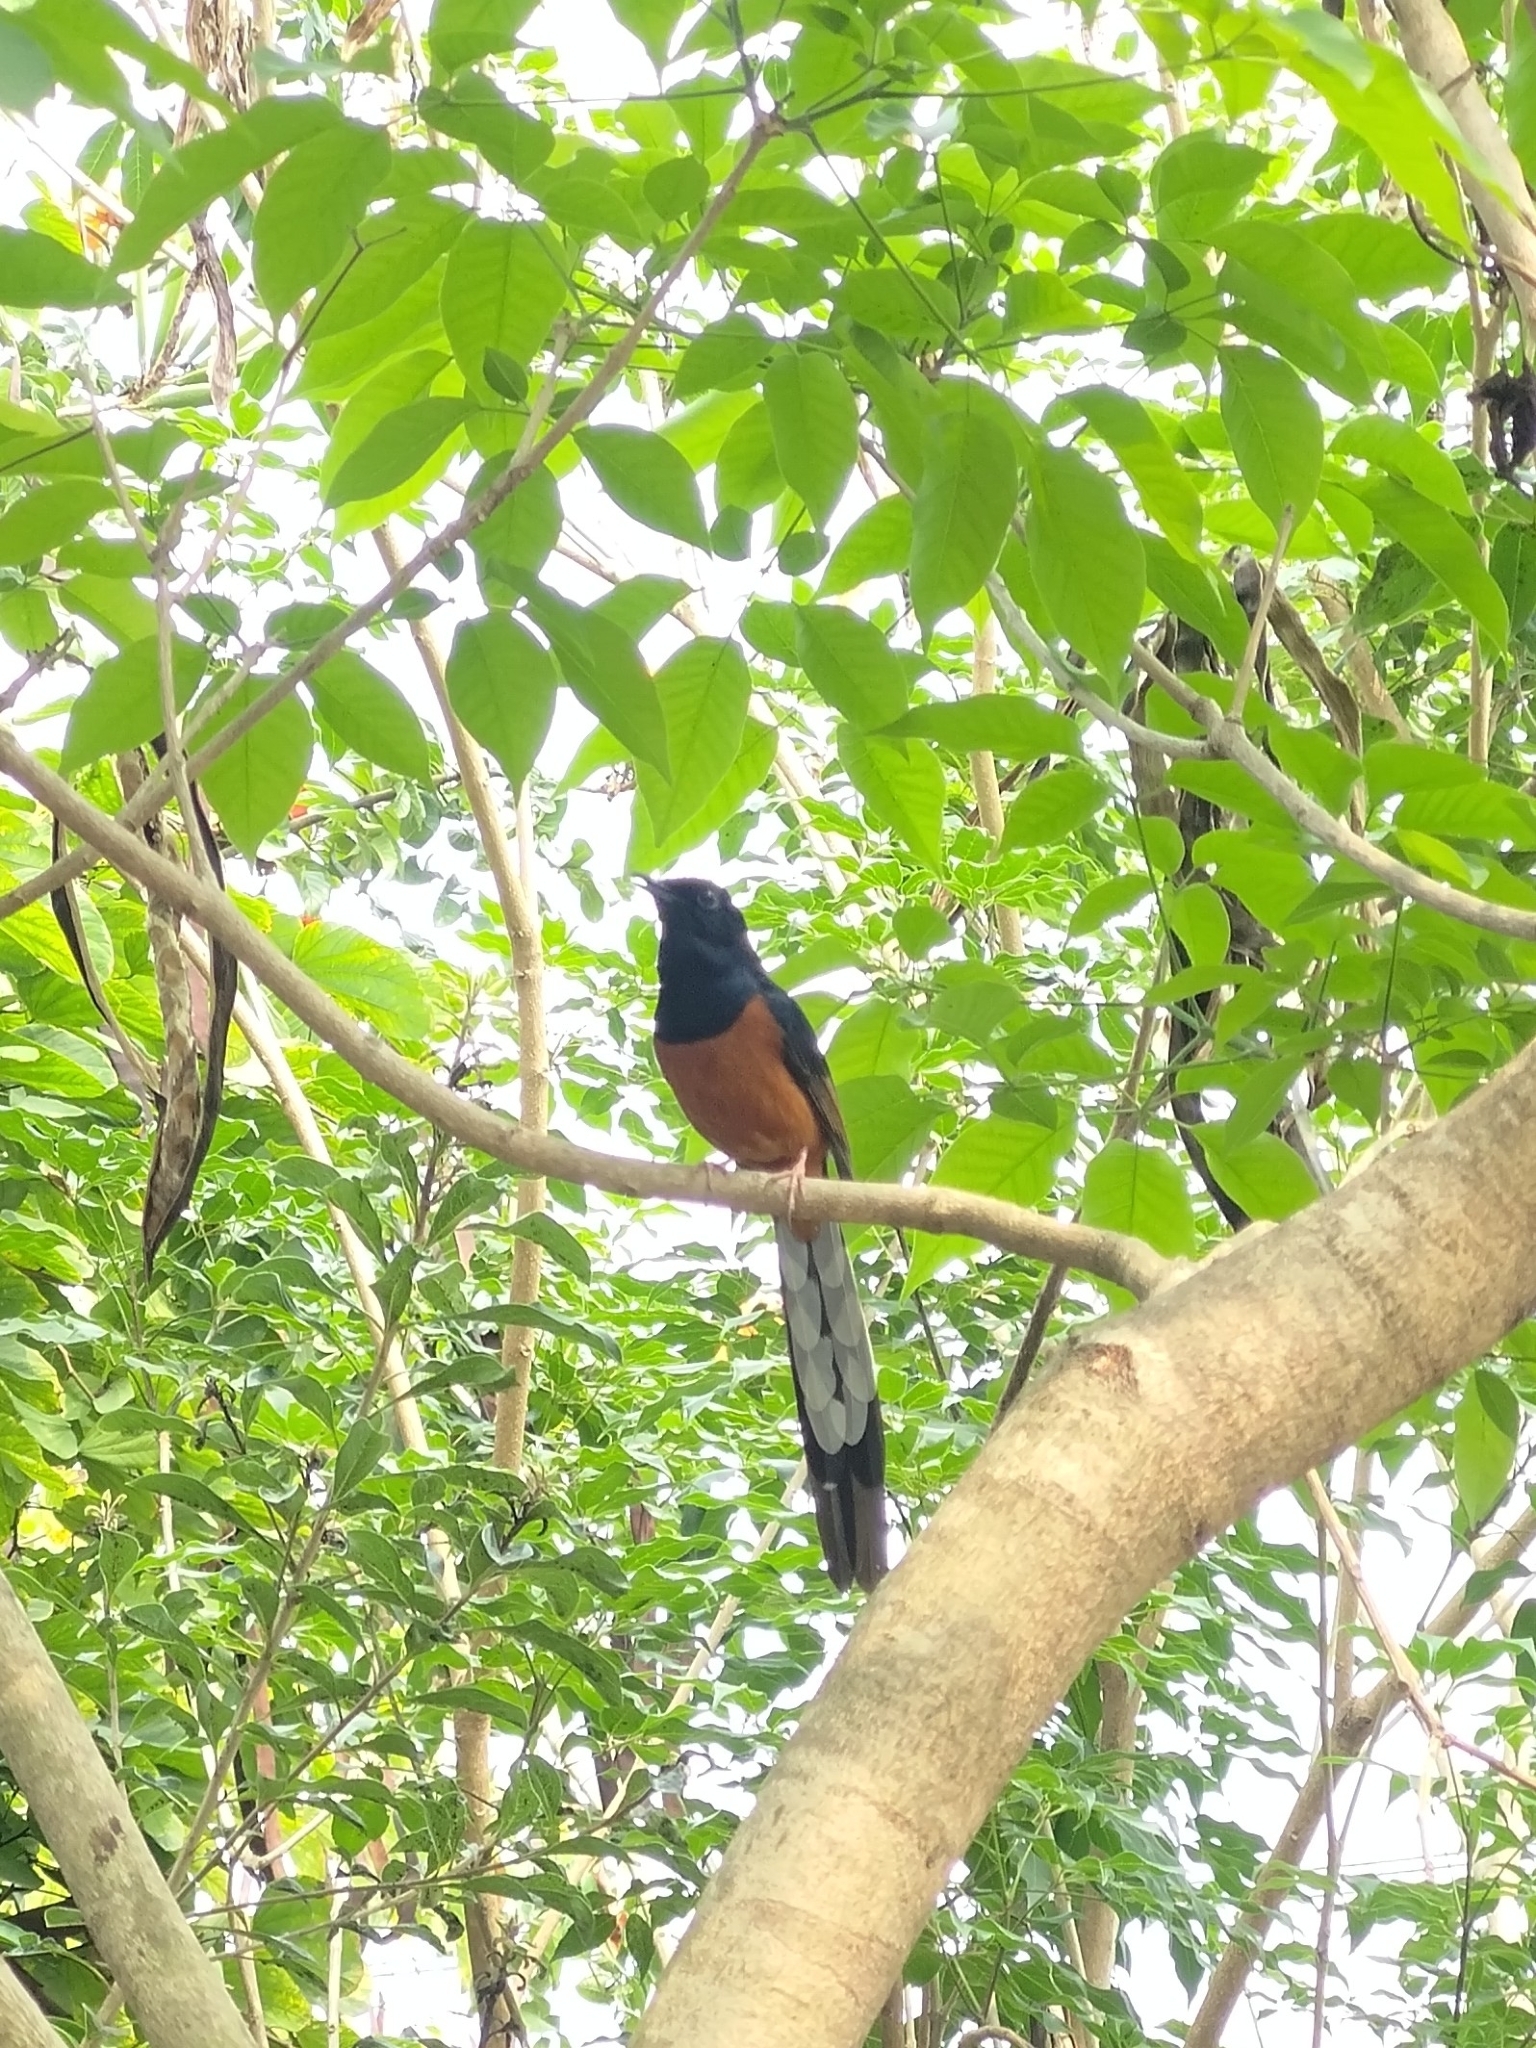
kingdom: Animalia
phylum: Chordata
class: Aves
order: Passeriformes
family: Muscicapidae
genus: Copsychus
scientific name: Copsychus malabaricus
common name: White-rumped shama
